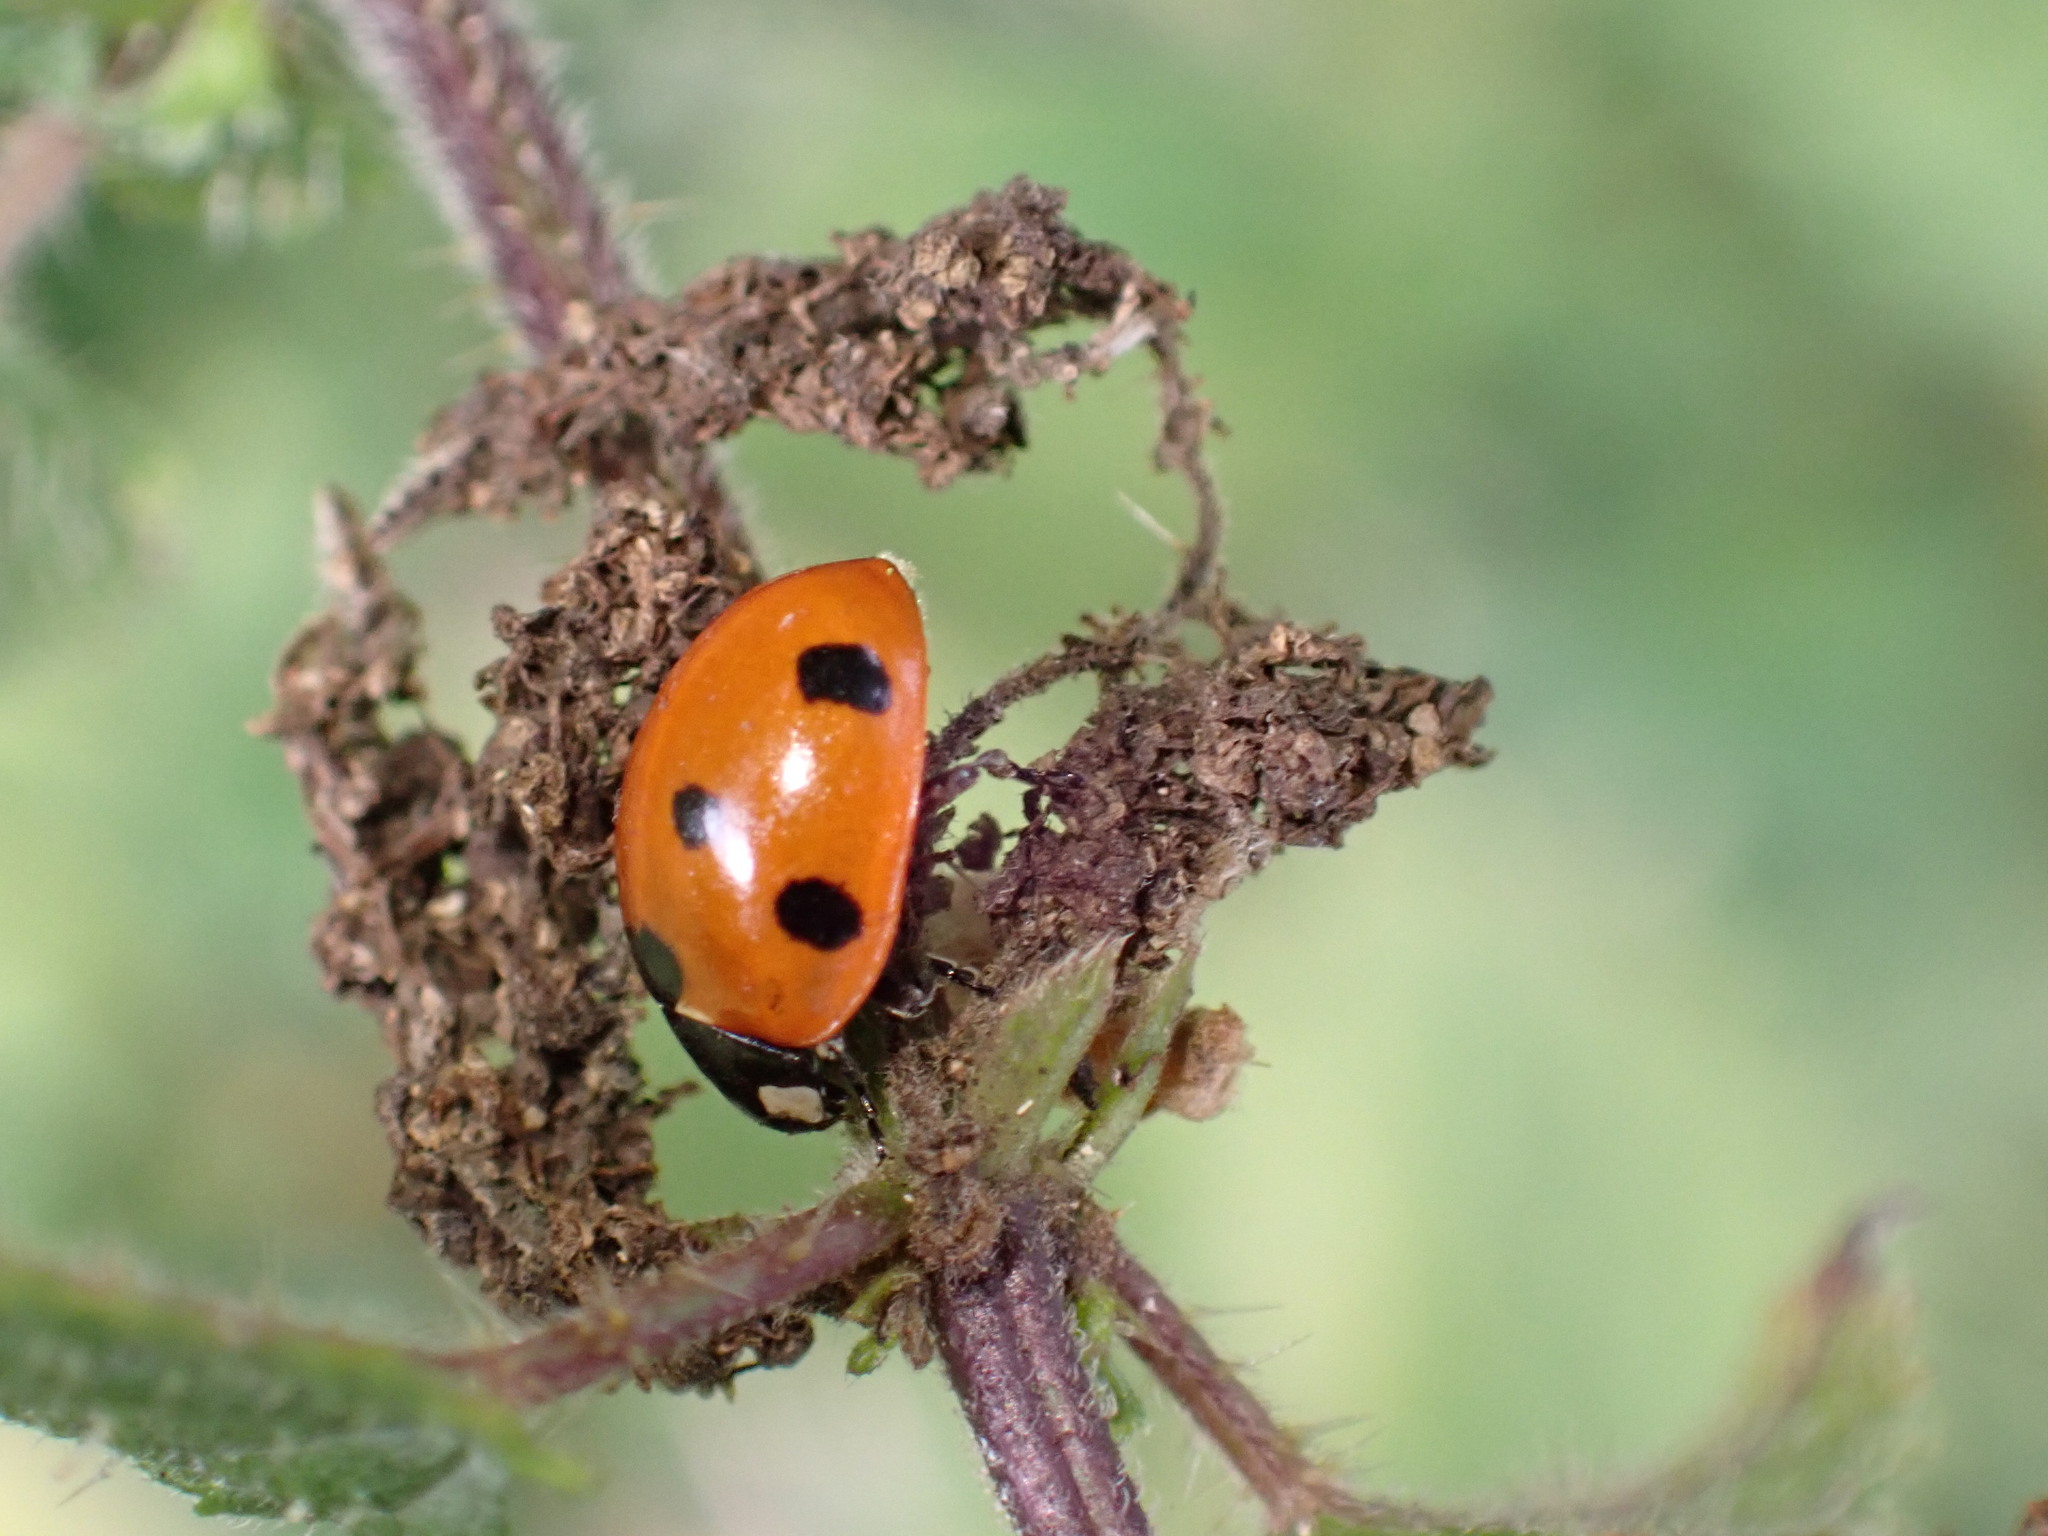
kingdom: Animalia
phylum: Arthropoda
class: Insecta
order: Coleoptera
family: Coccinellidae
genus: Coccinella
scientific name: Coccinella septempunctata
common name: Sevenspotted lady beetle
